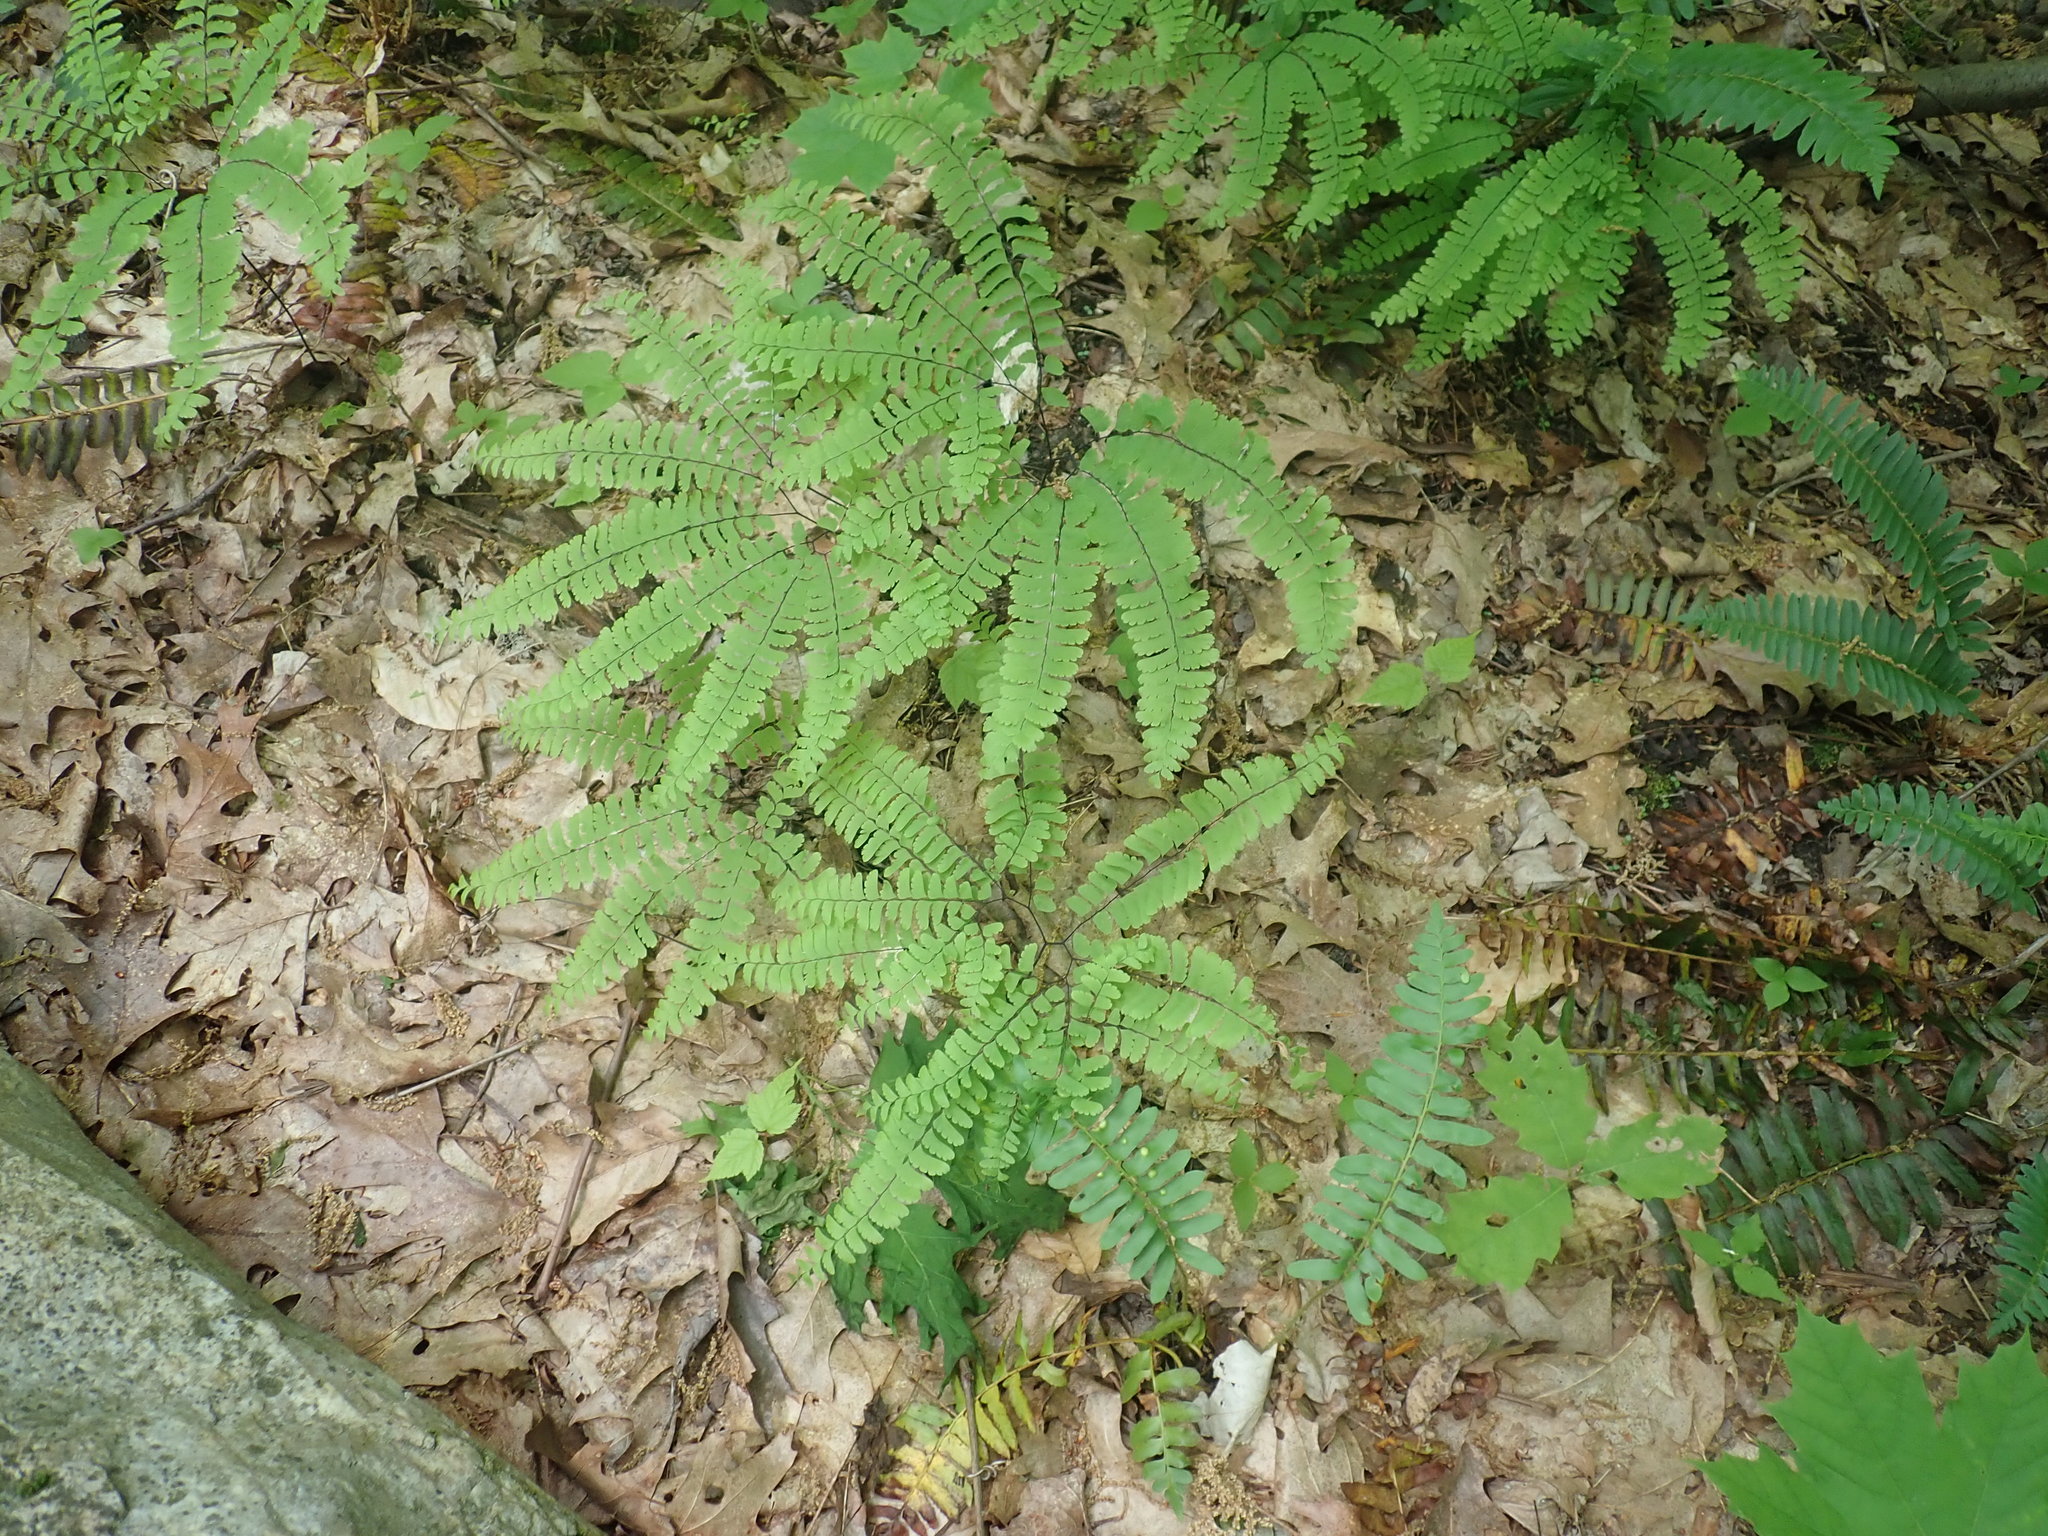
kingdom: Plantae
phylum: Tracheophyta
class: Polypodiopsida
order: Polypodiales
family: Pteridaceae
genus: Adiantum
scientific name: Adiantum pedatum
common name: Five-finger fern
